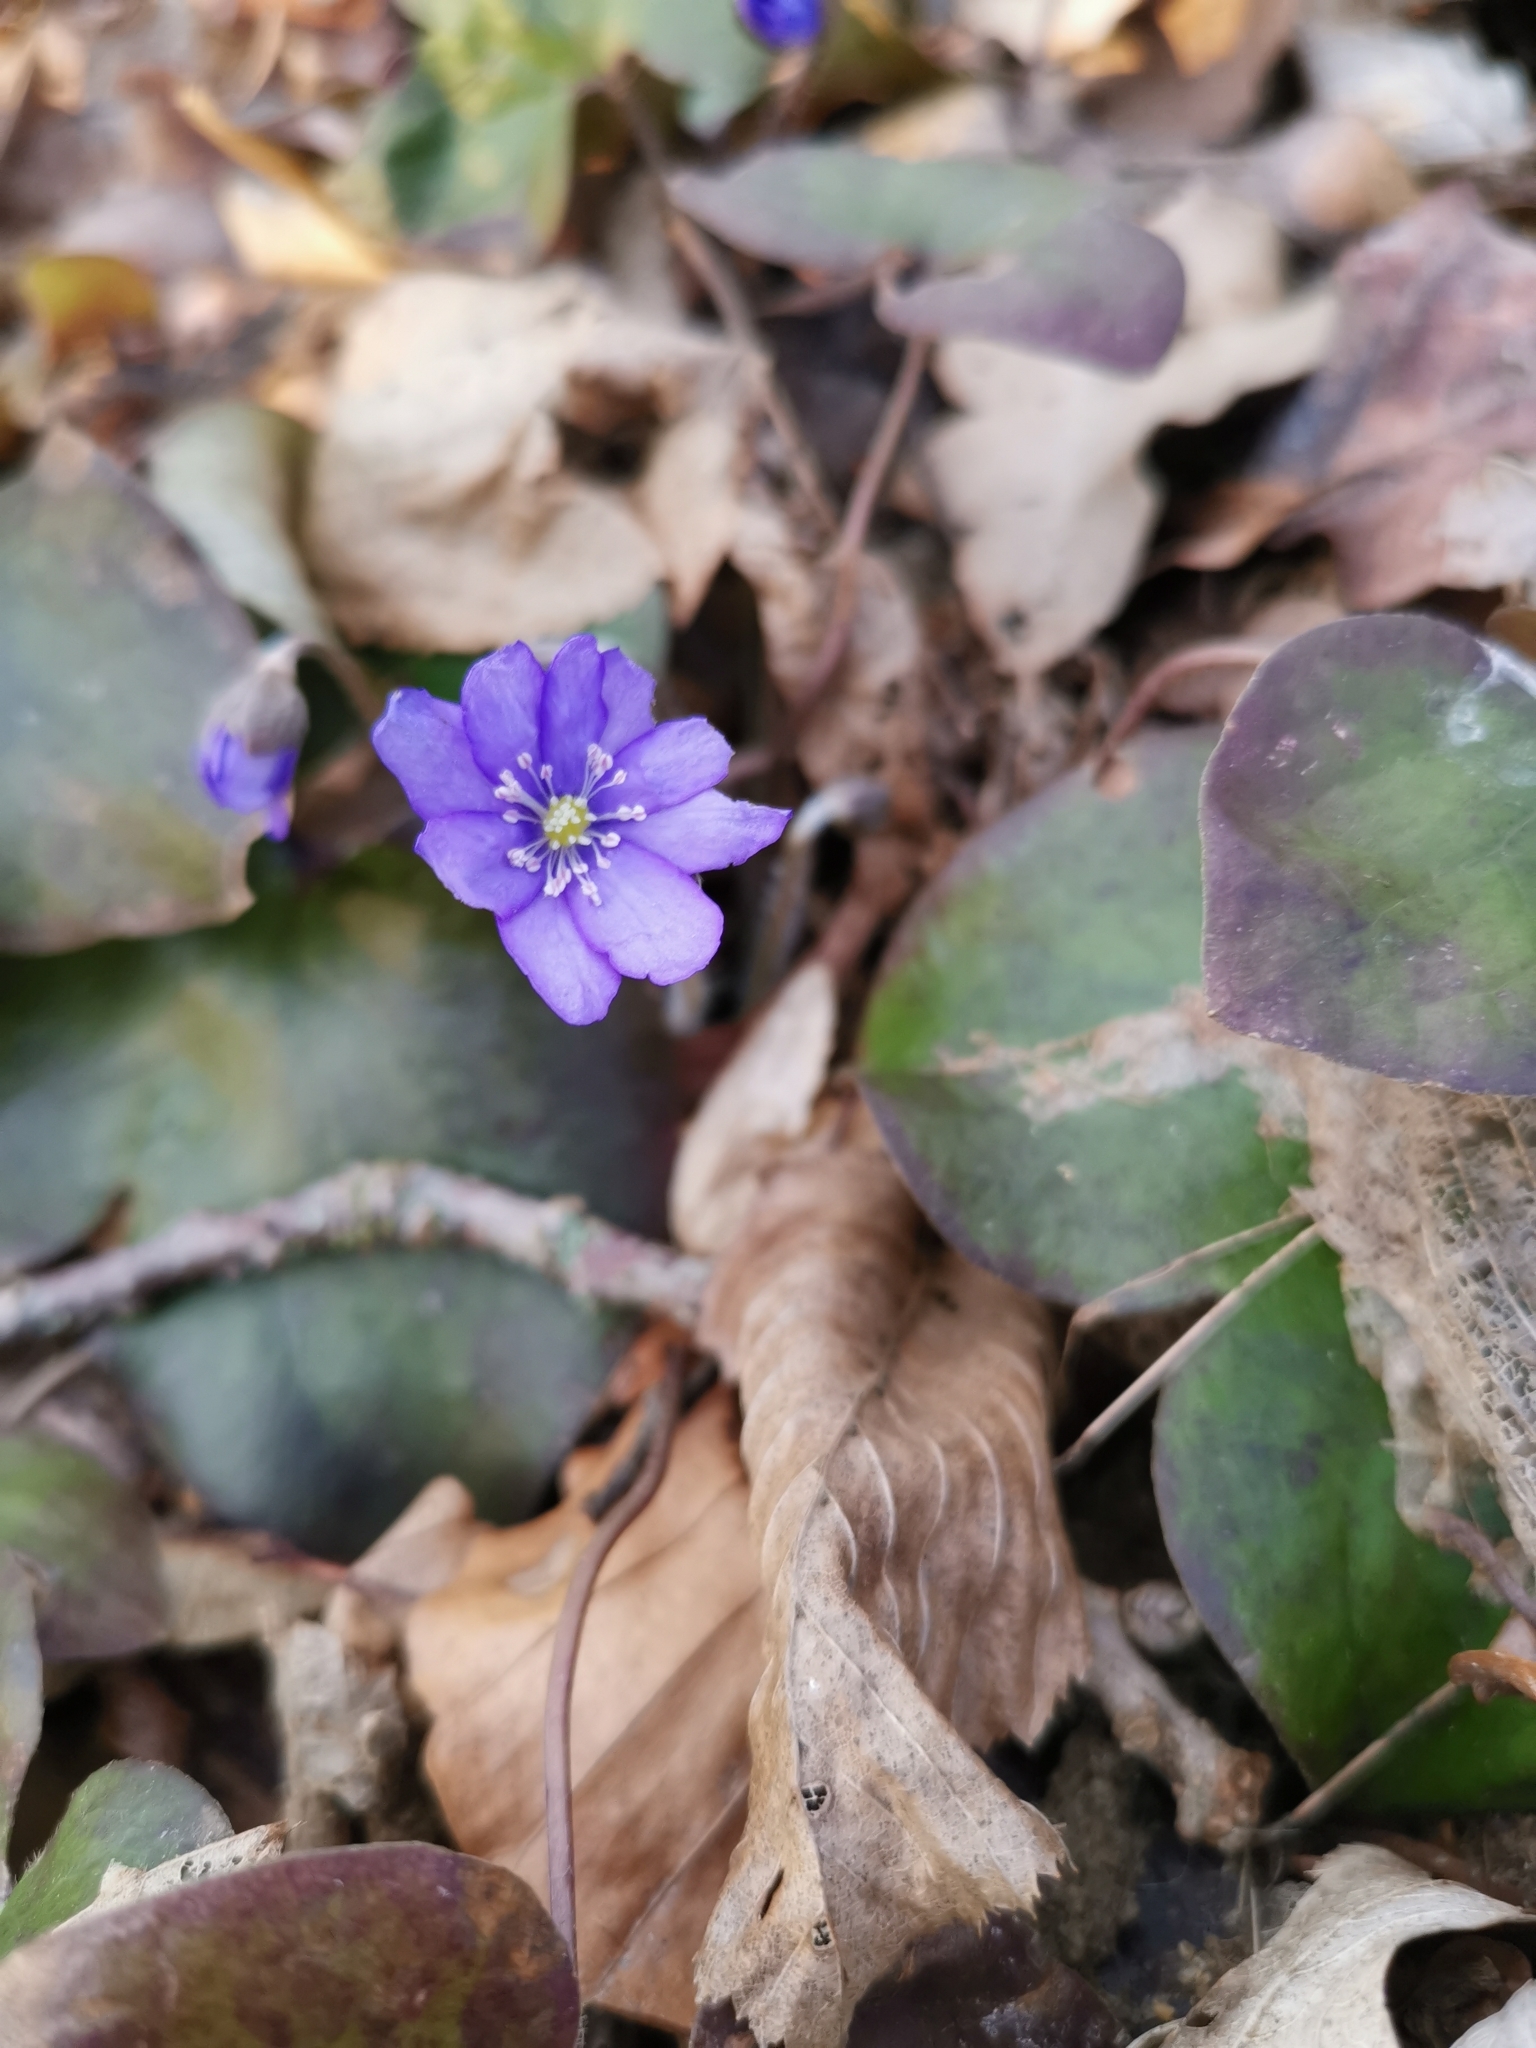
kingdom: Plantae
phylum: Tracheophyta
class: Magnoliopsida
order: Ranunculales
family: Ranunculaceae
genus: Hepatica
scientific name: Hepatica nobilis
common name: Liverleaf
